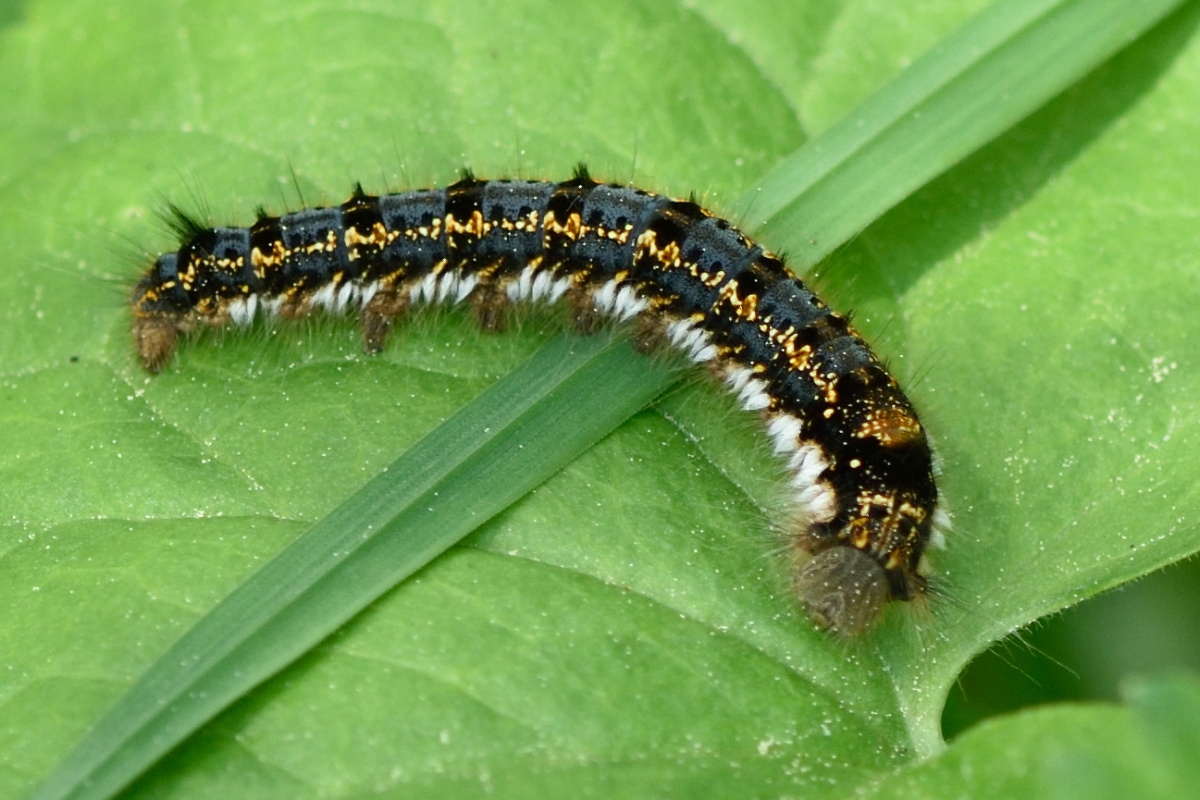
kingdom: Animalia
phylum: Arthropoda
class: Insecta
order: Lepidoptera
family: Lasiocampidae
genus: Euthrix
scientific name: Euthrix potatoria
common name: Drinker
